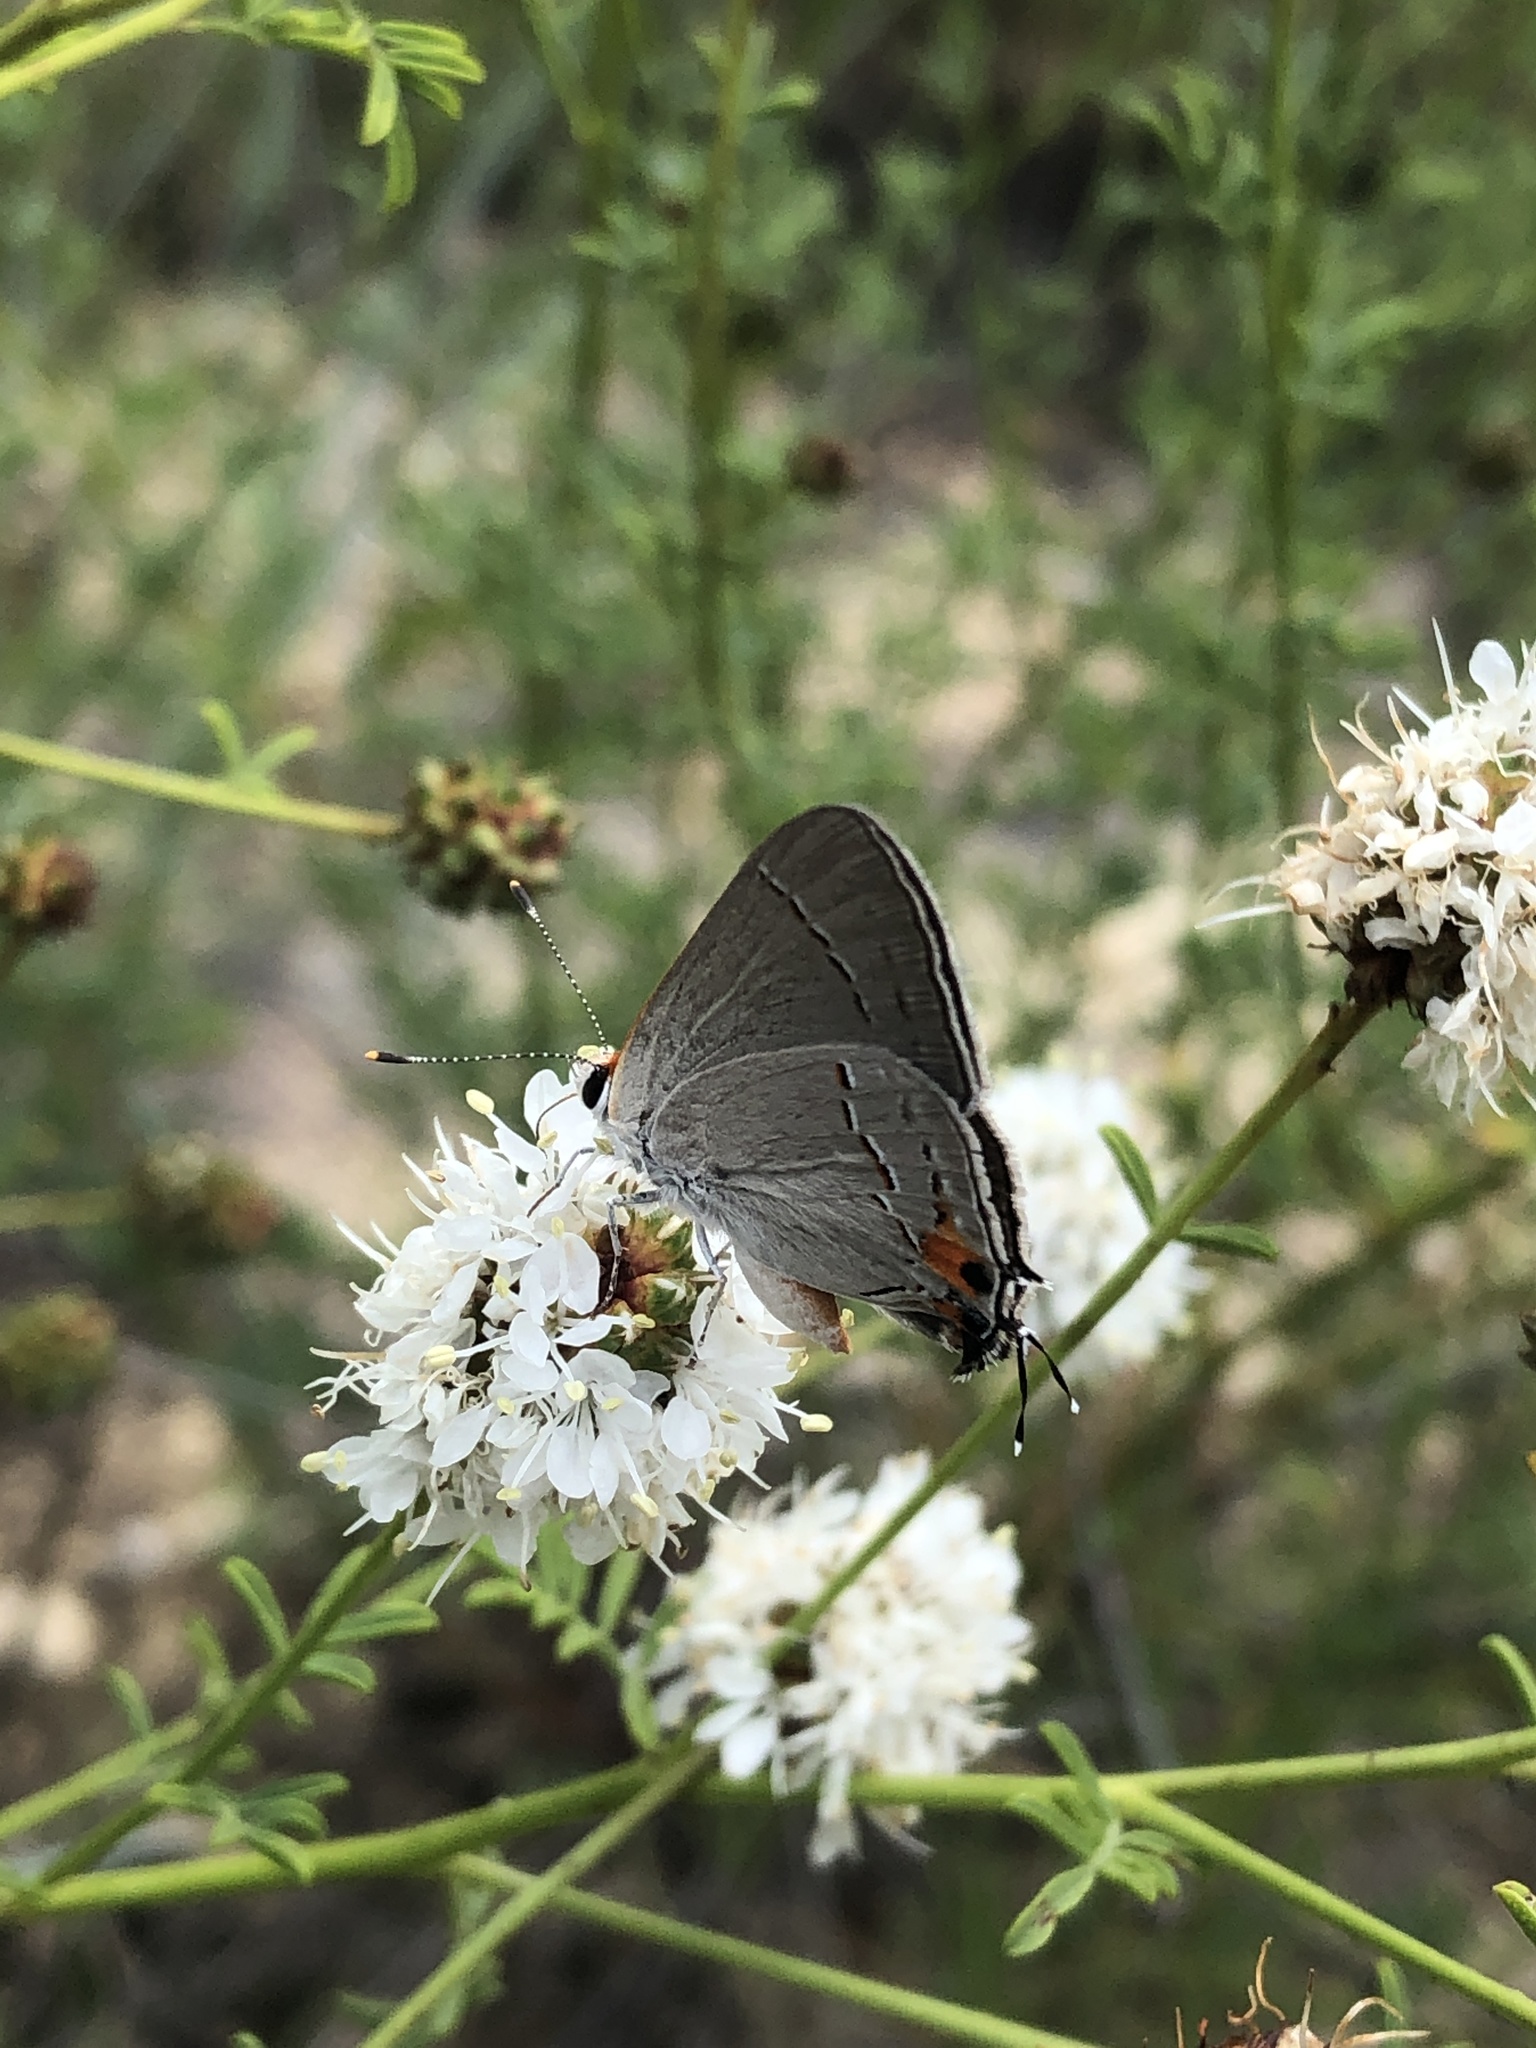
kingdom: Animalia
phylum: Arthropoda
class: Insecta
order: Lepidoptera
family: Lycaenidae
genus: Strymon
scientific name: Strymon melinus
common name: Gray hairstreak
